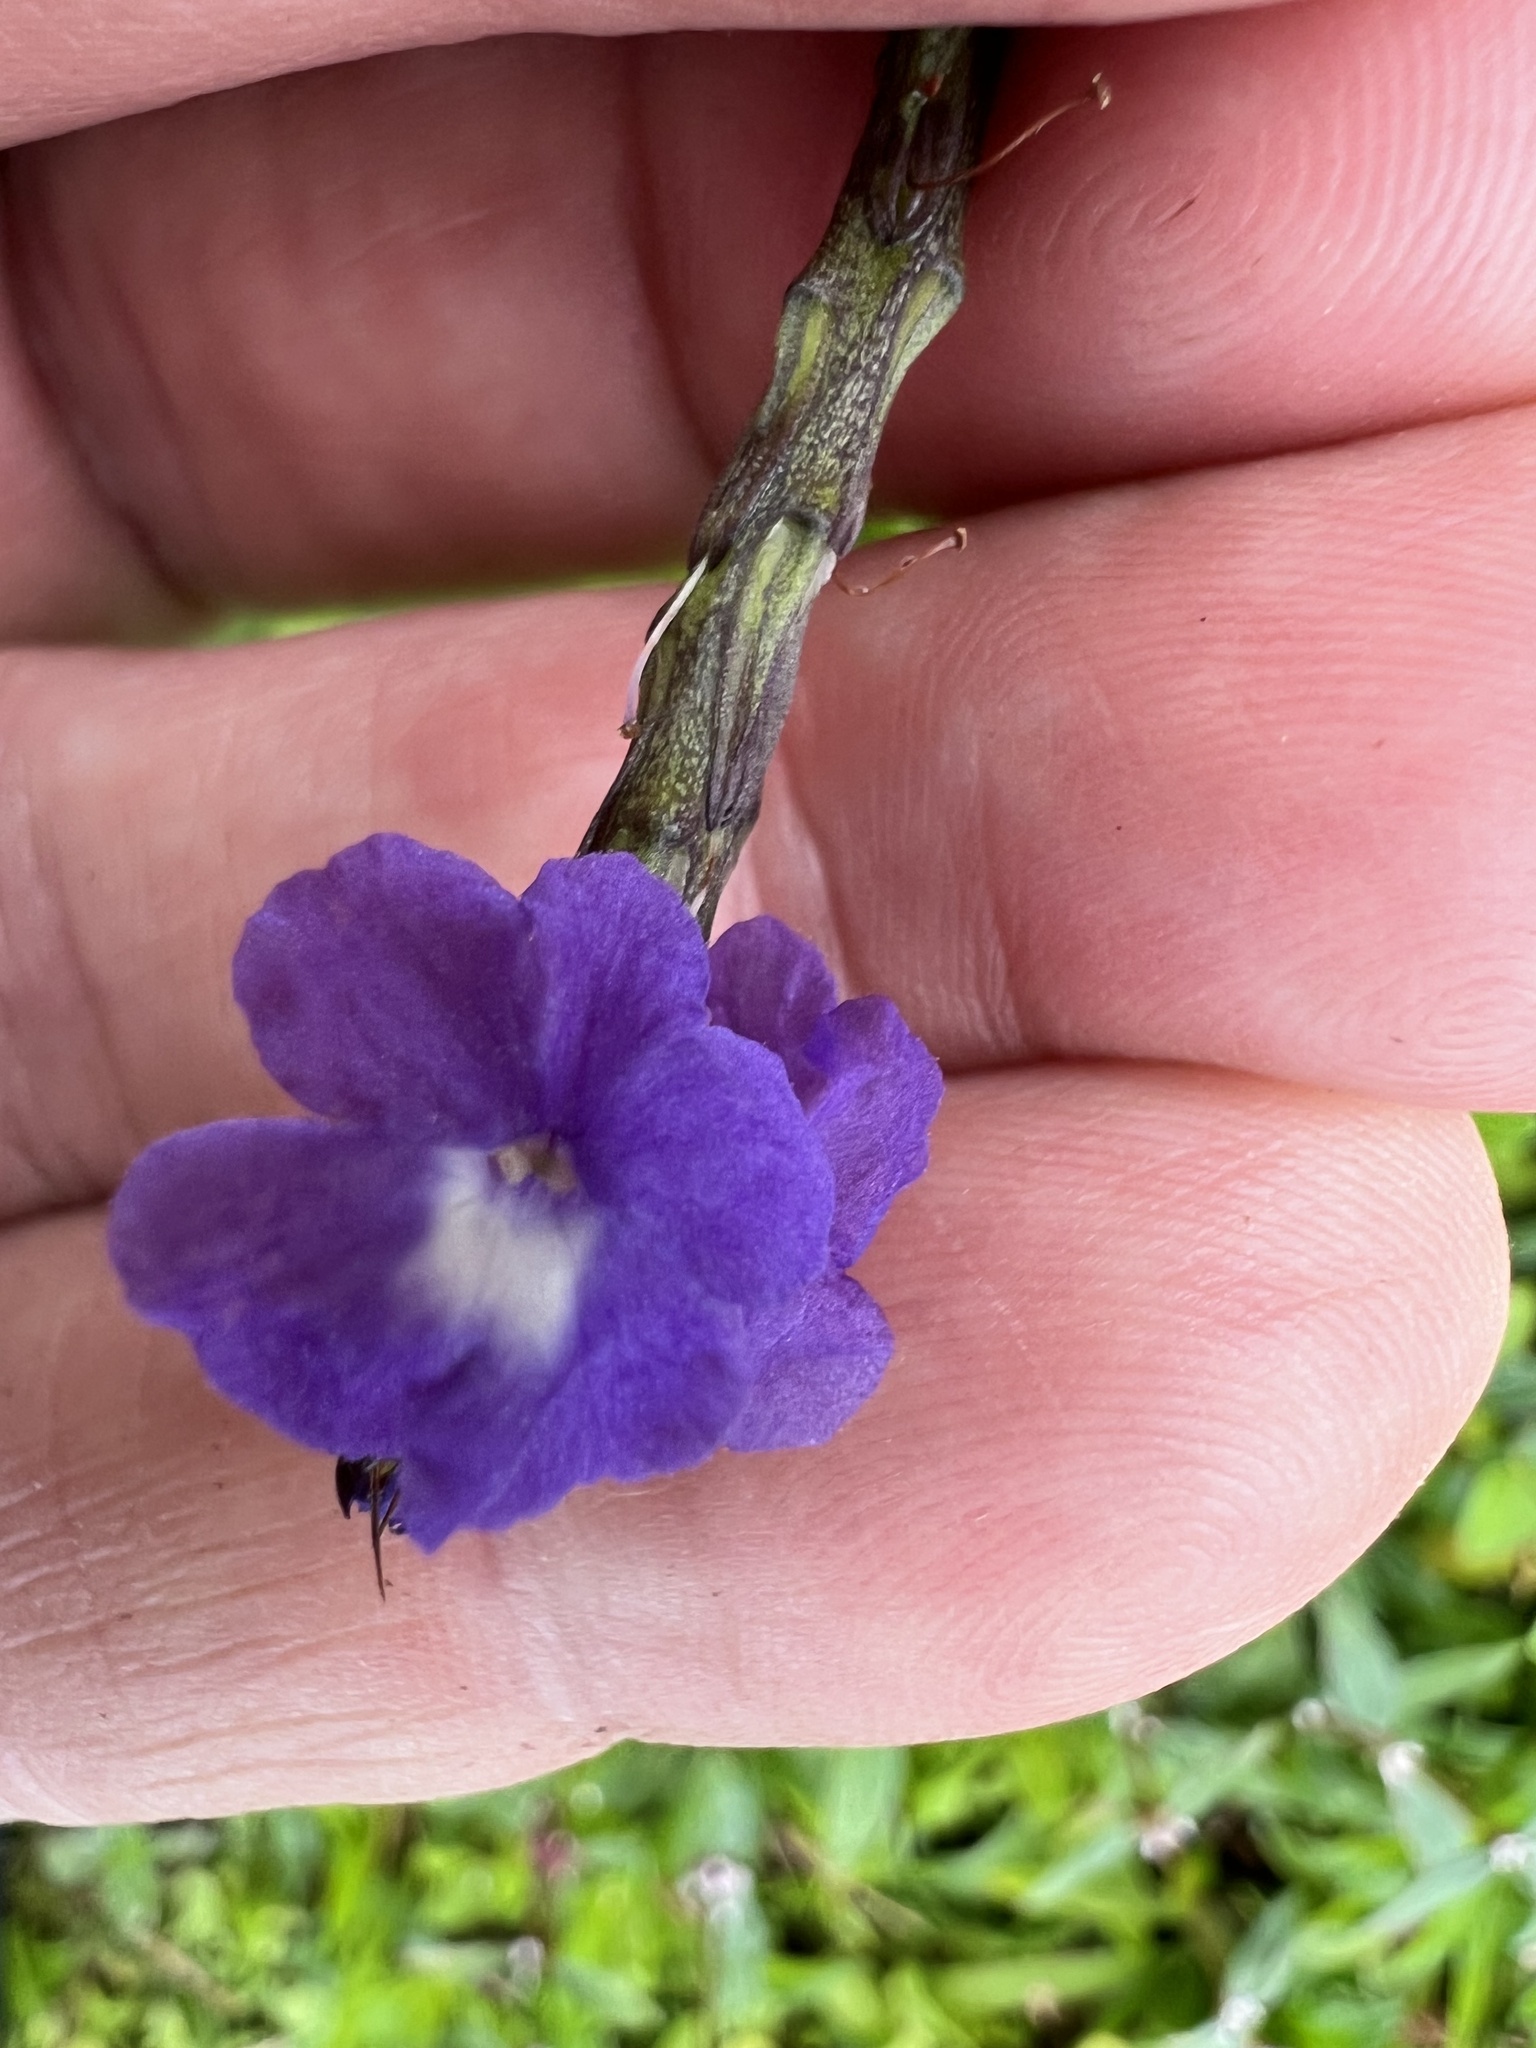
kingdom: Plantae
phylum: Tracheophyta
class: Magnoliopsida
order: Lamiales
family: Verbenaceae
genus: Stachytarpheta
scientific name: Stachytarpheta cayennensis
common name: Cayenne porterweed
